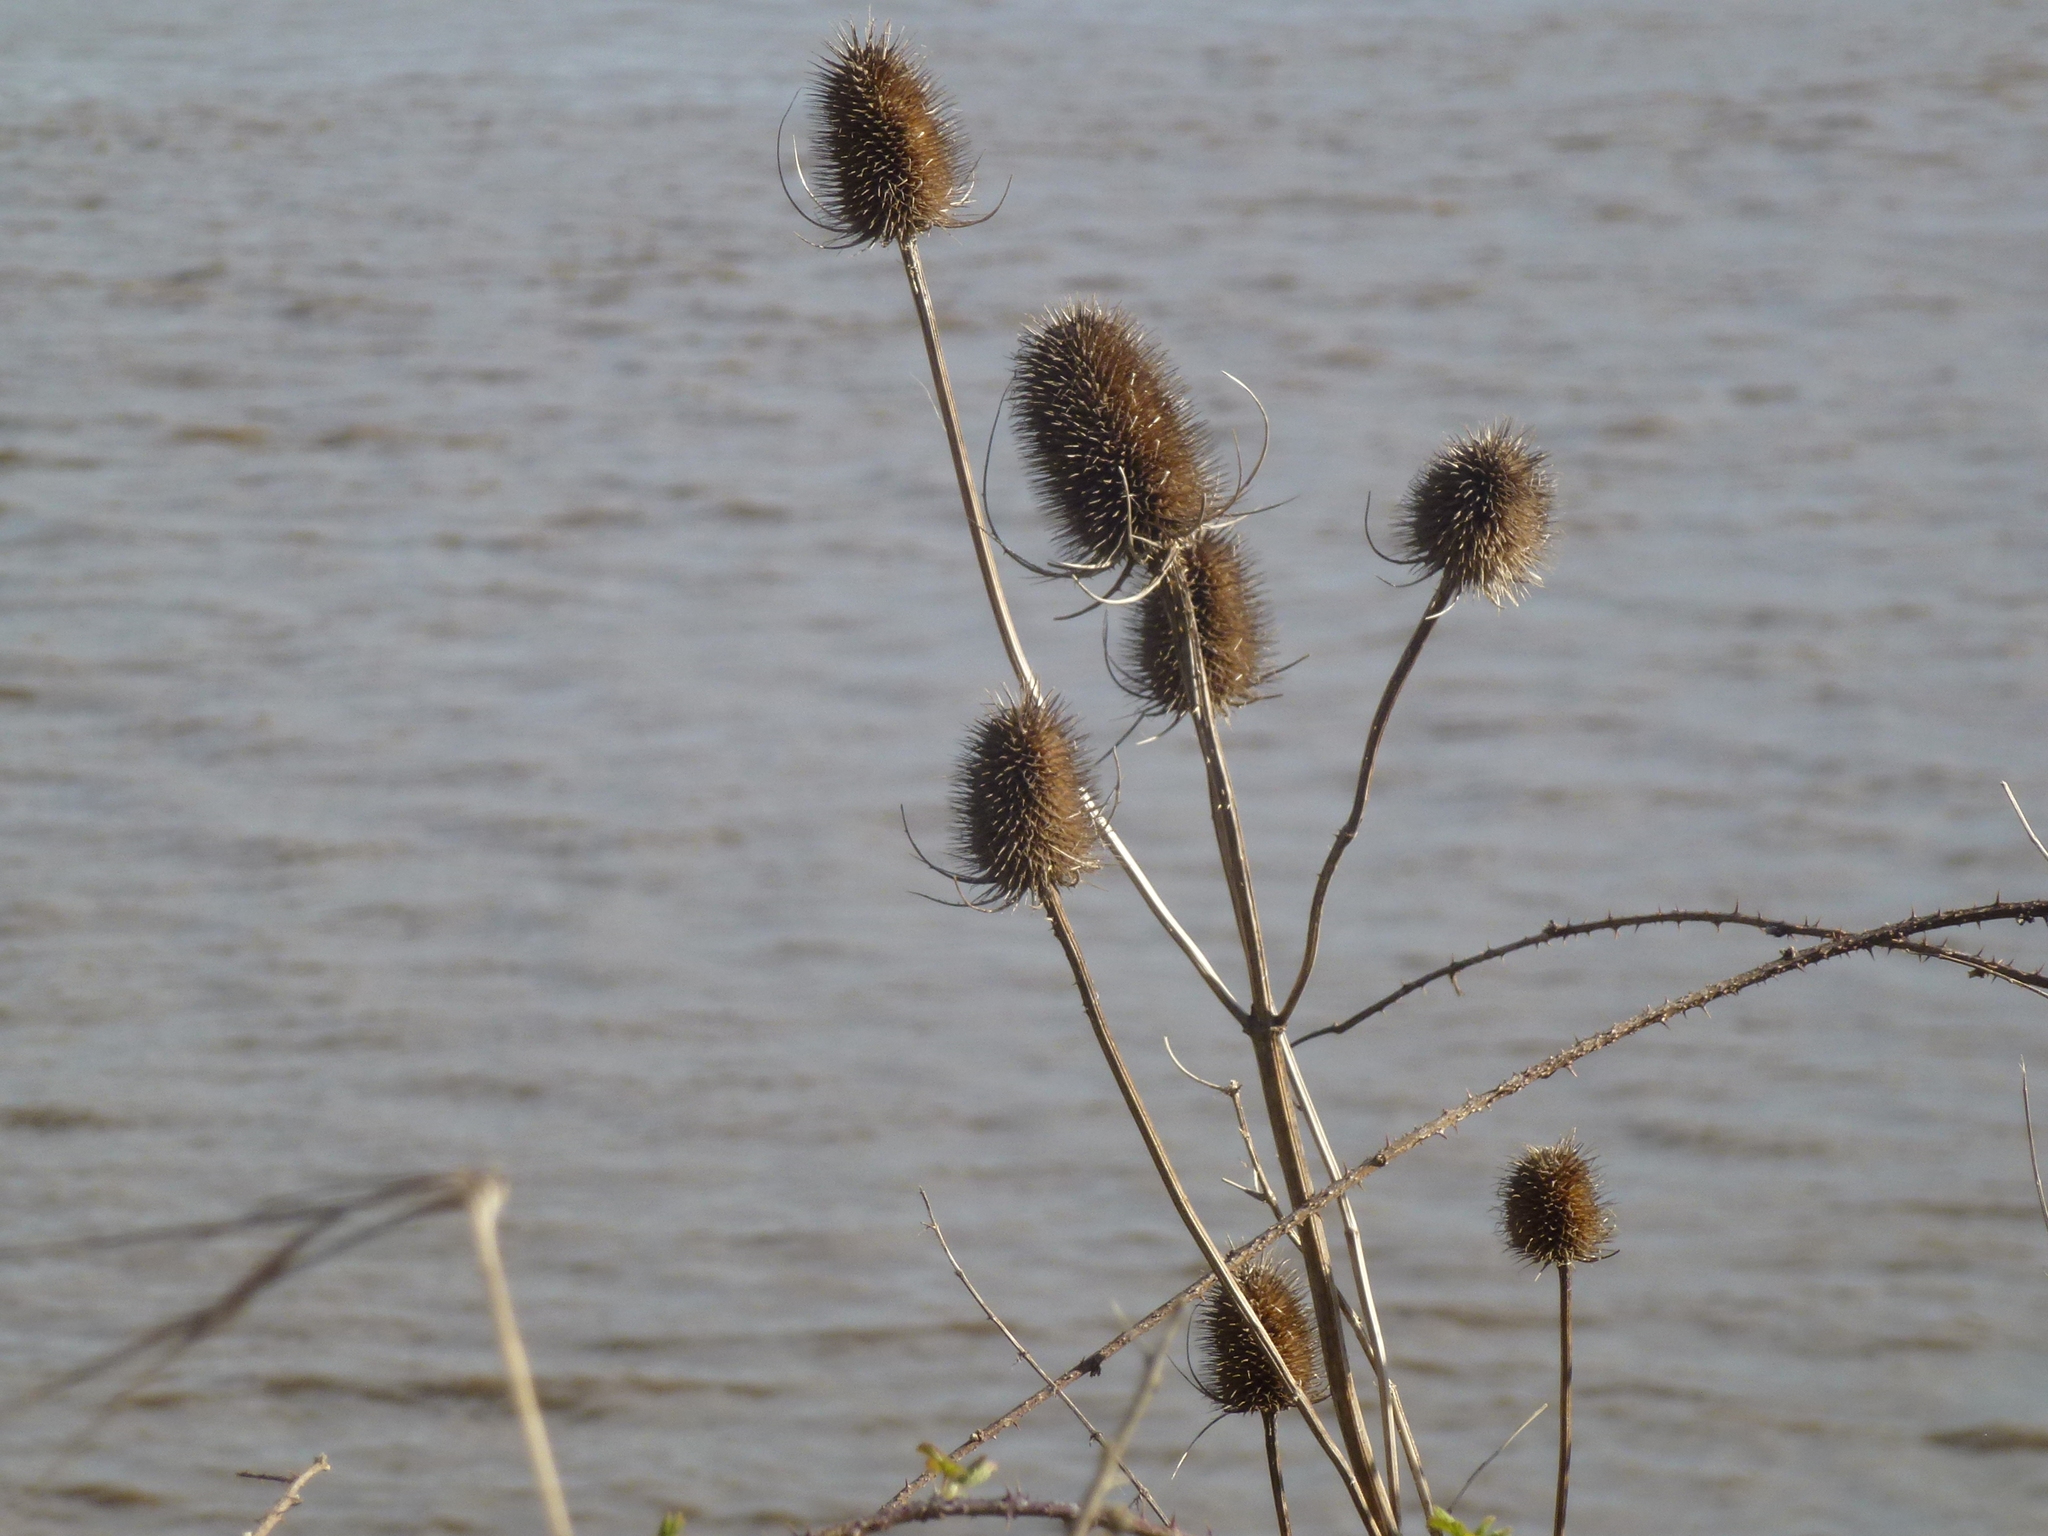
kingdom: Plantae
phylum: Tracheophyta
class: Magnoliopsida
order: Dipsacales
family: Caprifoliaceae
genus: Dipsacus
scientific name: Dipsacus fullonum
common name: Teasel
